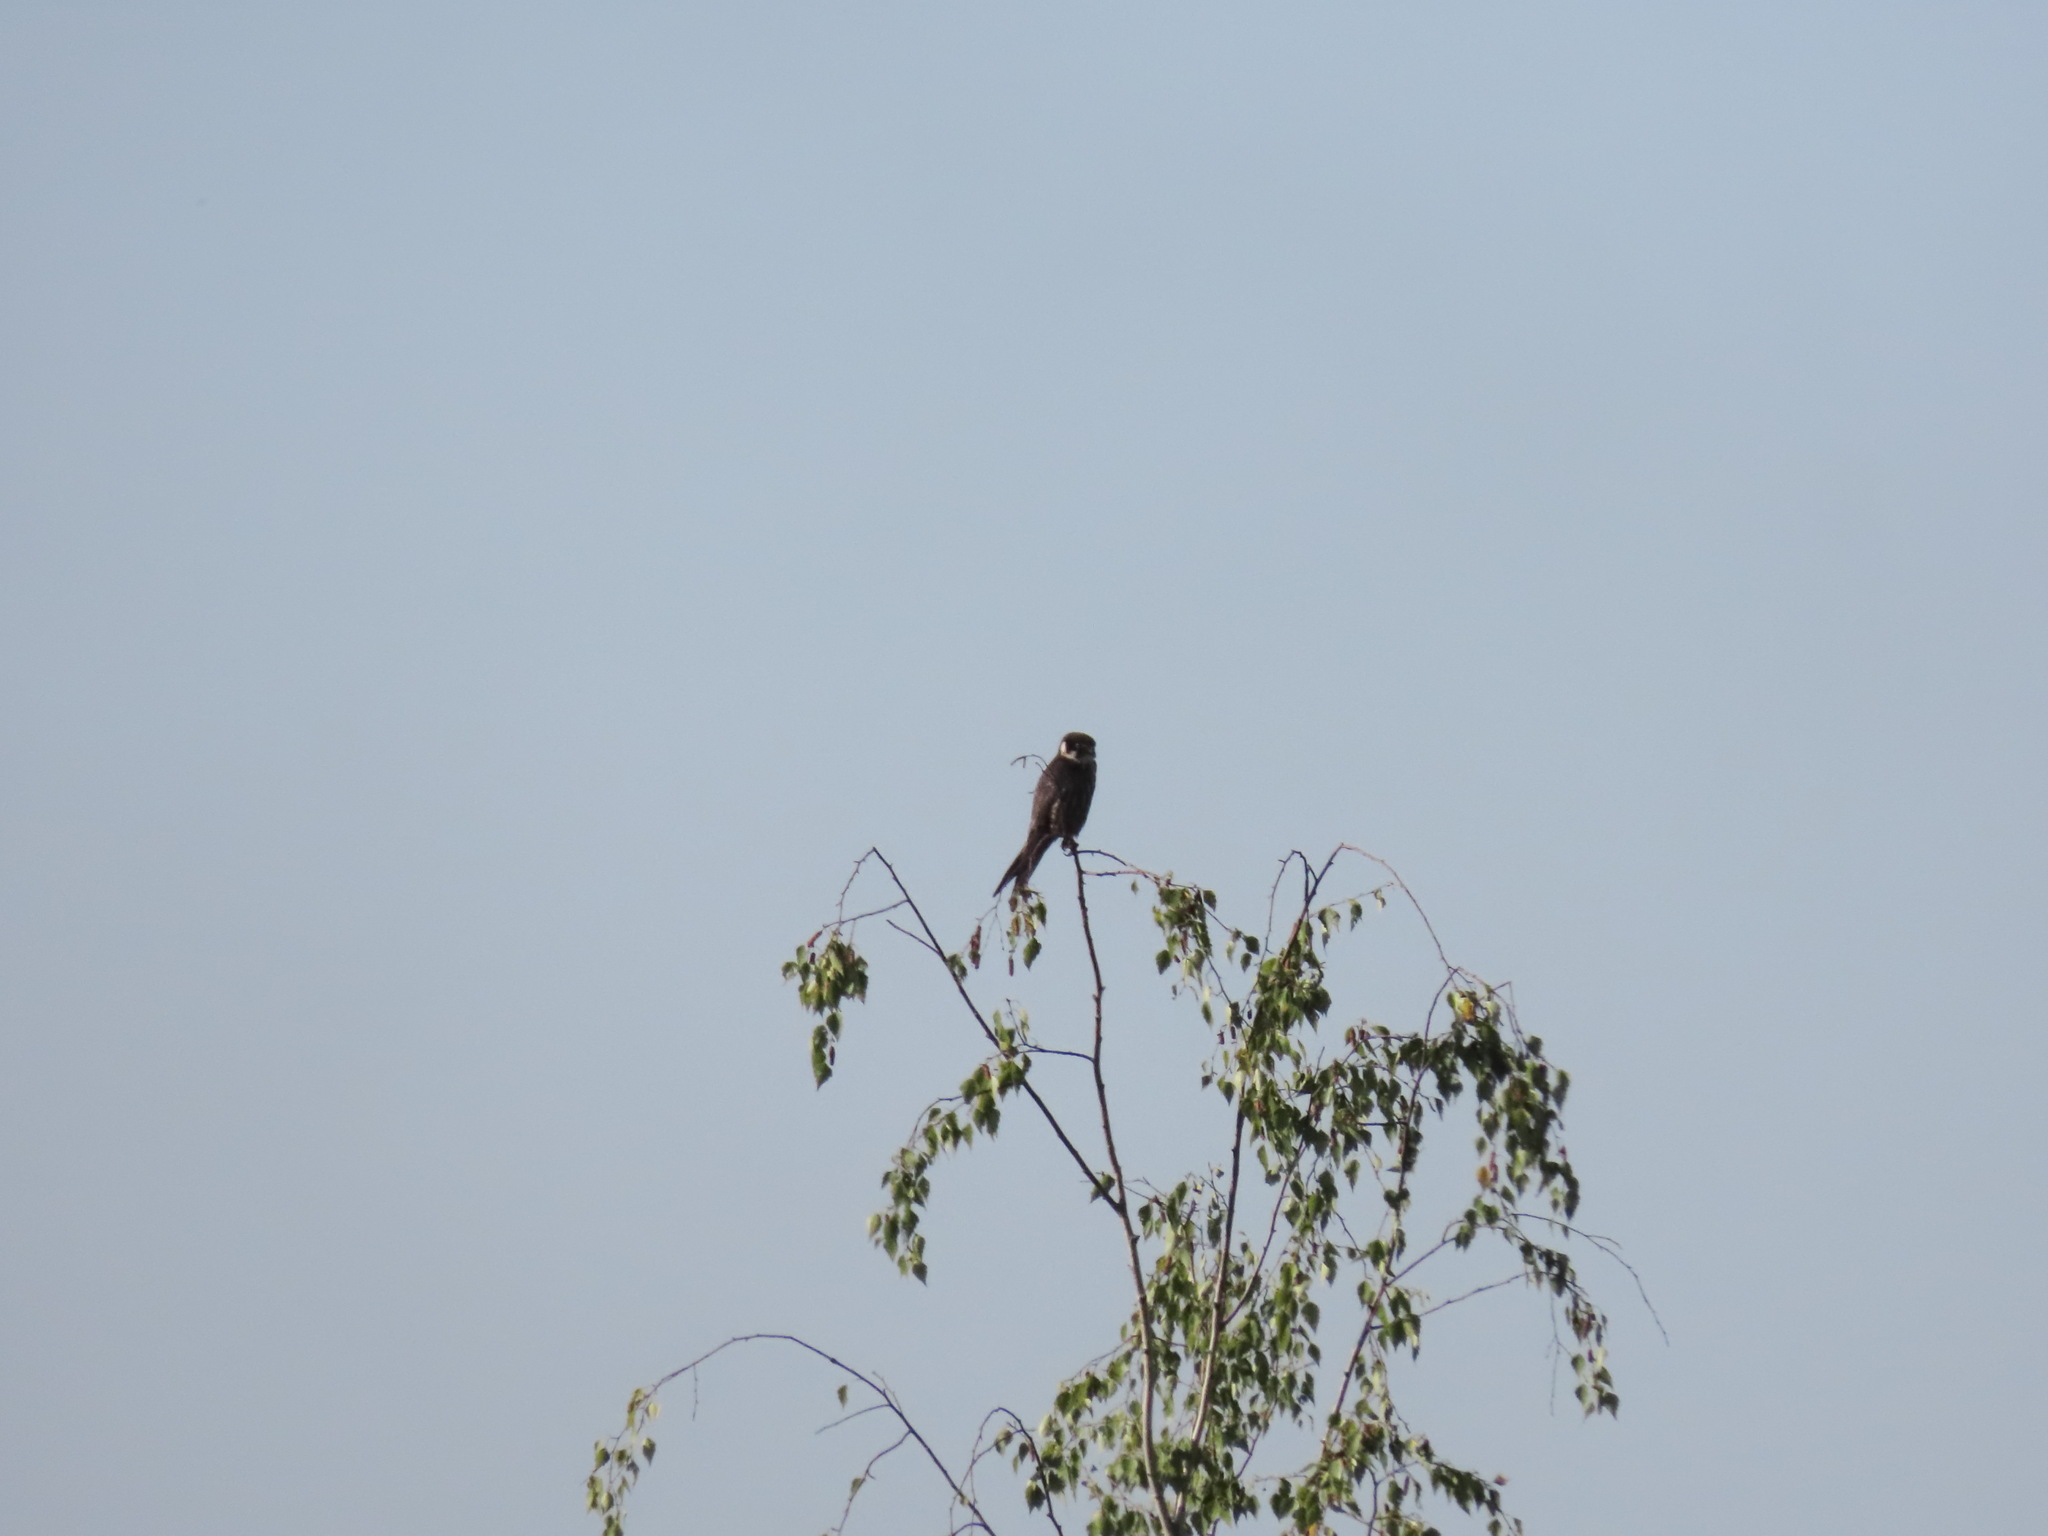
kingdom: Animalia
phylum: Chordata
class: Aves
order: Falconiformes
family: Falconidae
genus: Falco
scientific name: Falco subbuteo
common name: Eurasian hobby
